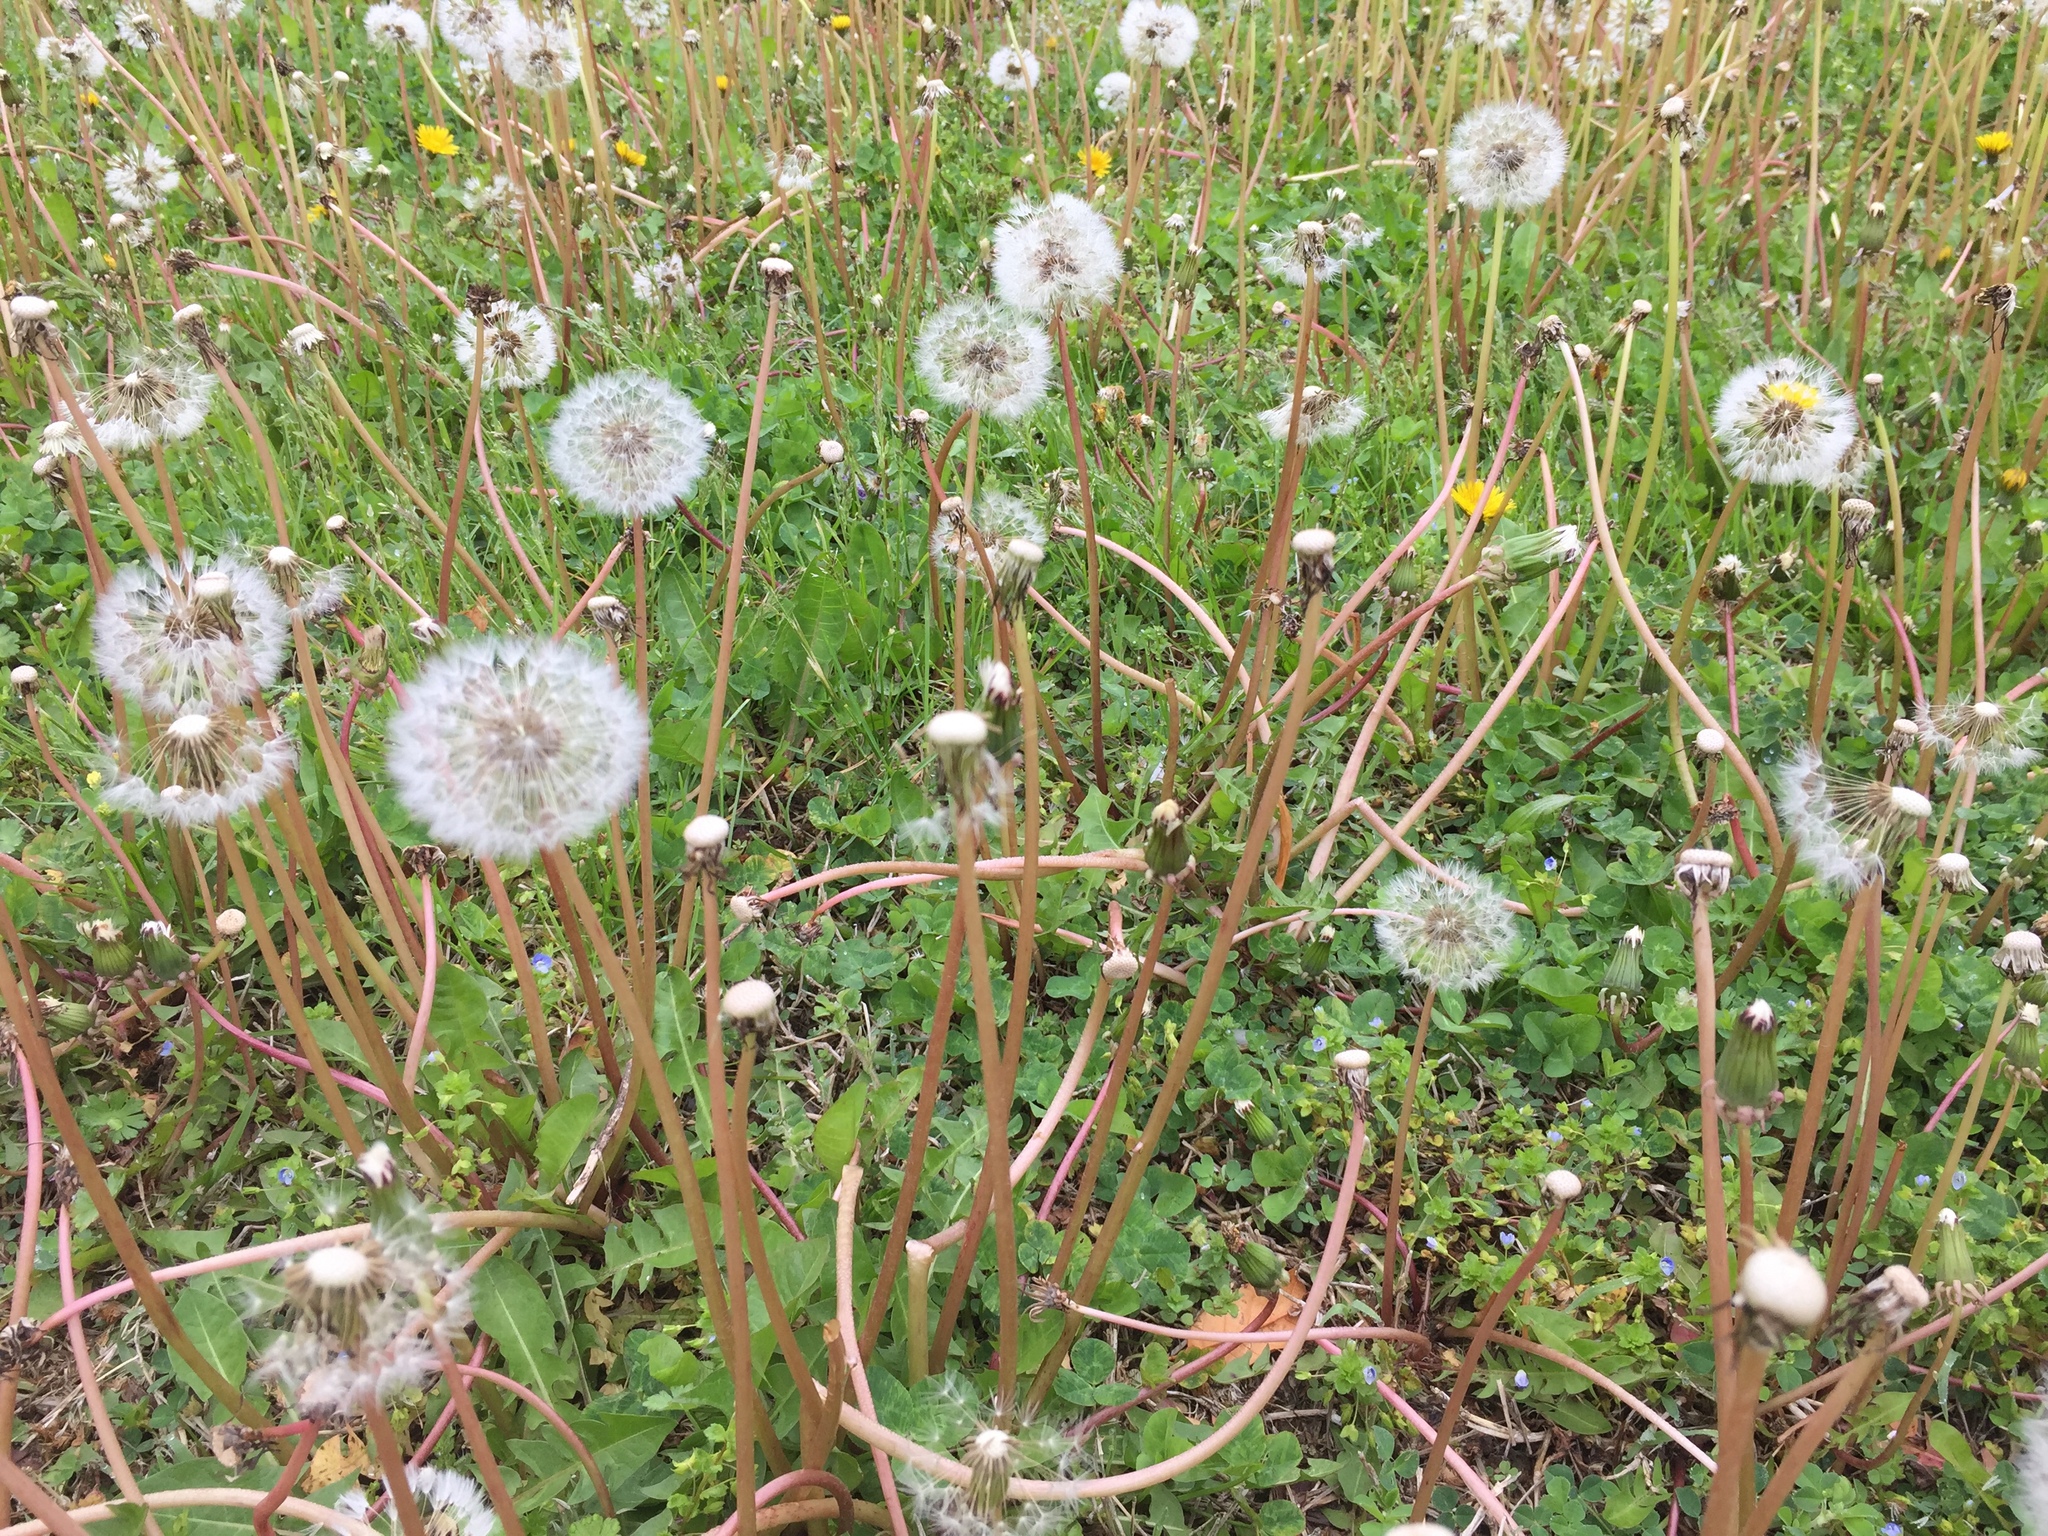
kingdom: Plantae
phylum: Tracheophyta
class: Magnoliopsida
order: Asterales
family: Asteraceae
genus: Taraxacum
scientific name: Taraxacum officinale
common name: Common dandelion
